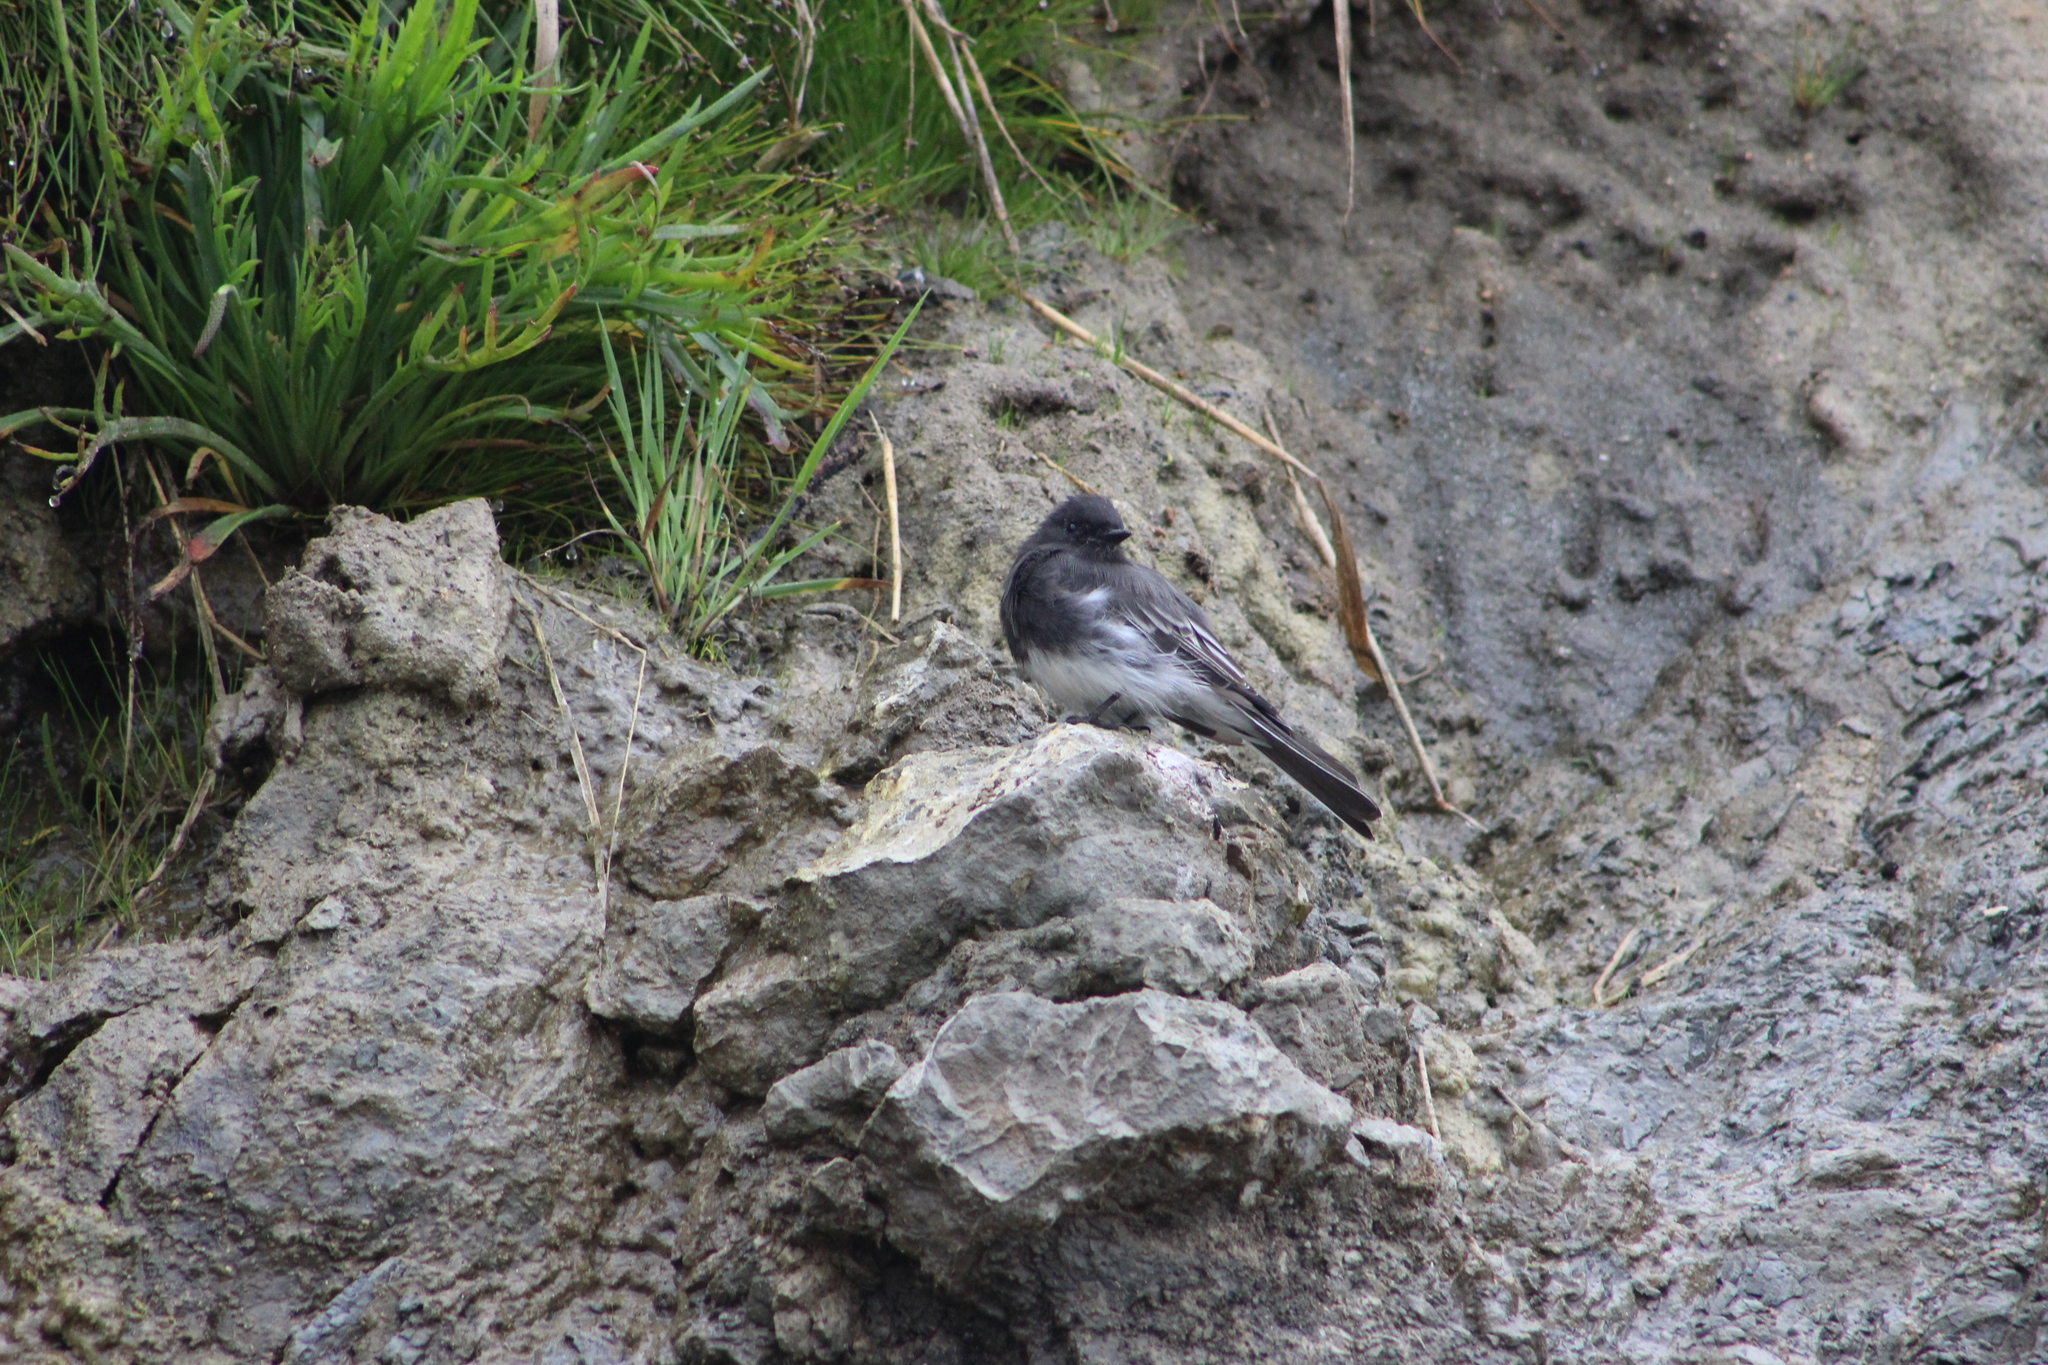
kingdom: Animalia
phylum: Chordata
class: Aves
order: Passeriformes
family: Tyrannidae
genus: Sayornis
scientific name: Sayornis nigricans
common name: Black phoebe
